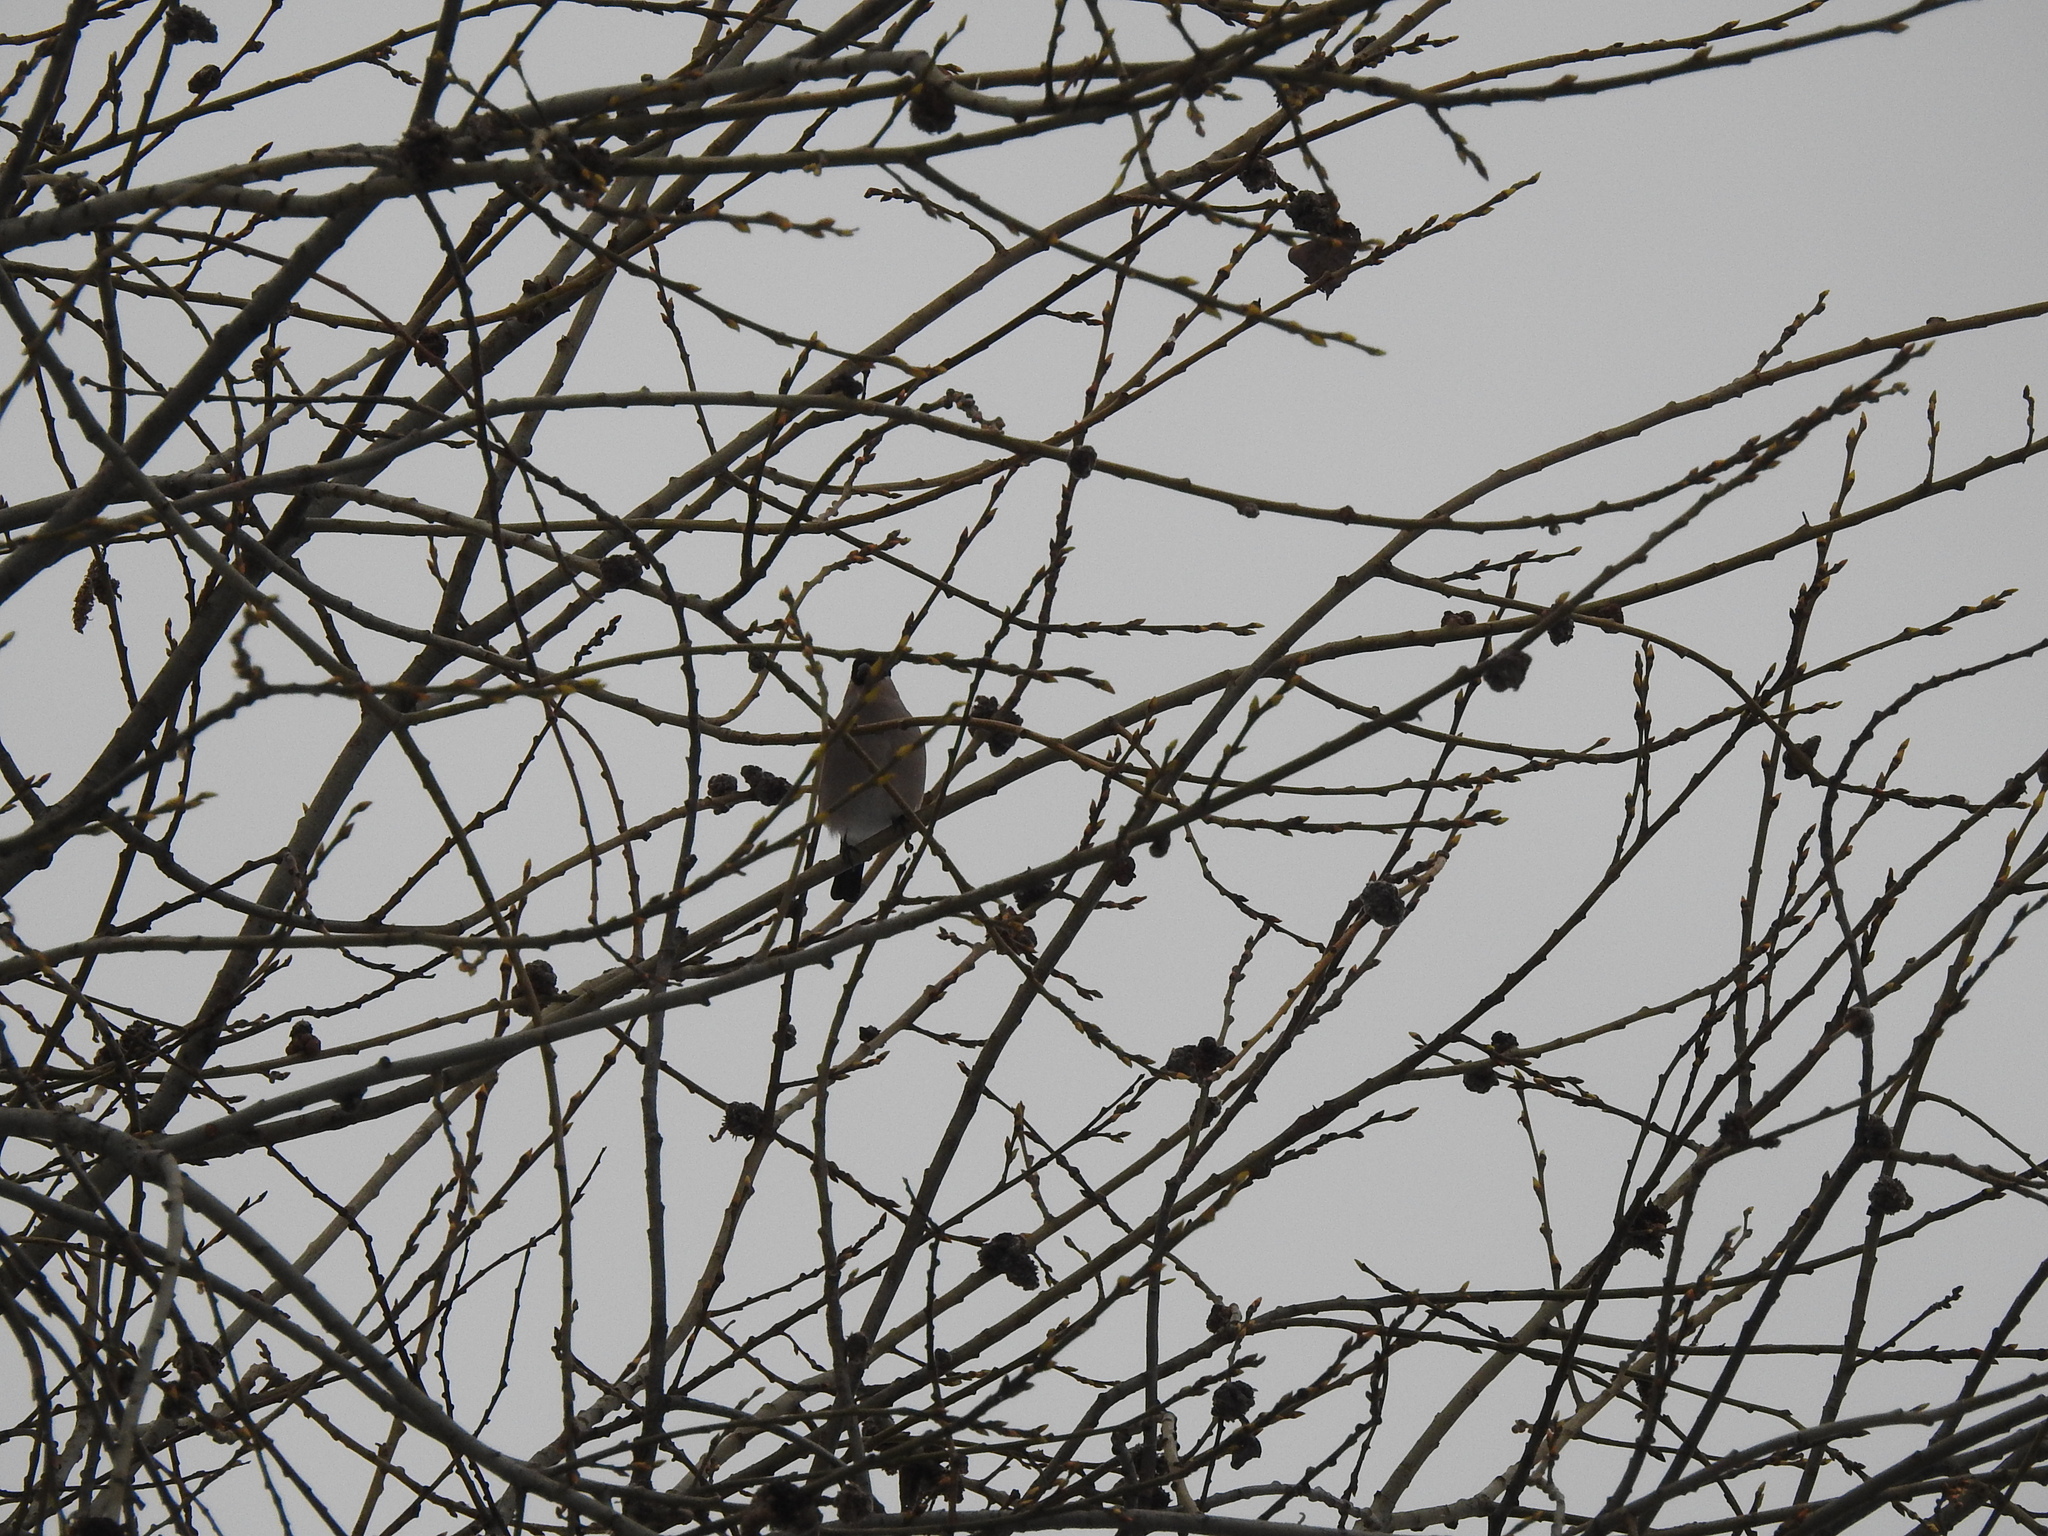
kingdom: Animalia
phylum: Chordata
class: Aves
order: Passeriformes
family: Fringillidae
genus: Pyrrhula
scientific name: Pyrrhula pyrrhula
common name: Eurasian bullfinch
